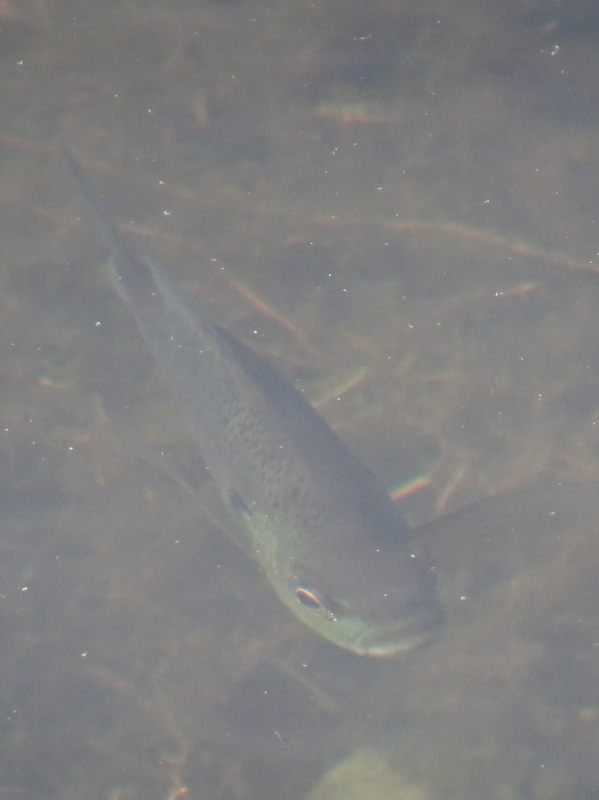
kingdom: Animalia
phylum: Chordata
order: Perciformes
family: Centrarchidae
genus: Lepomis
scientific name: Lepomis macrochirus
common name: Bluegill
